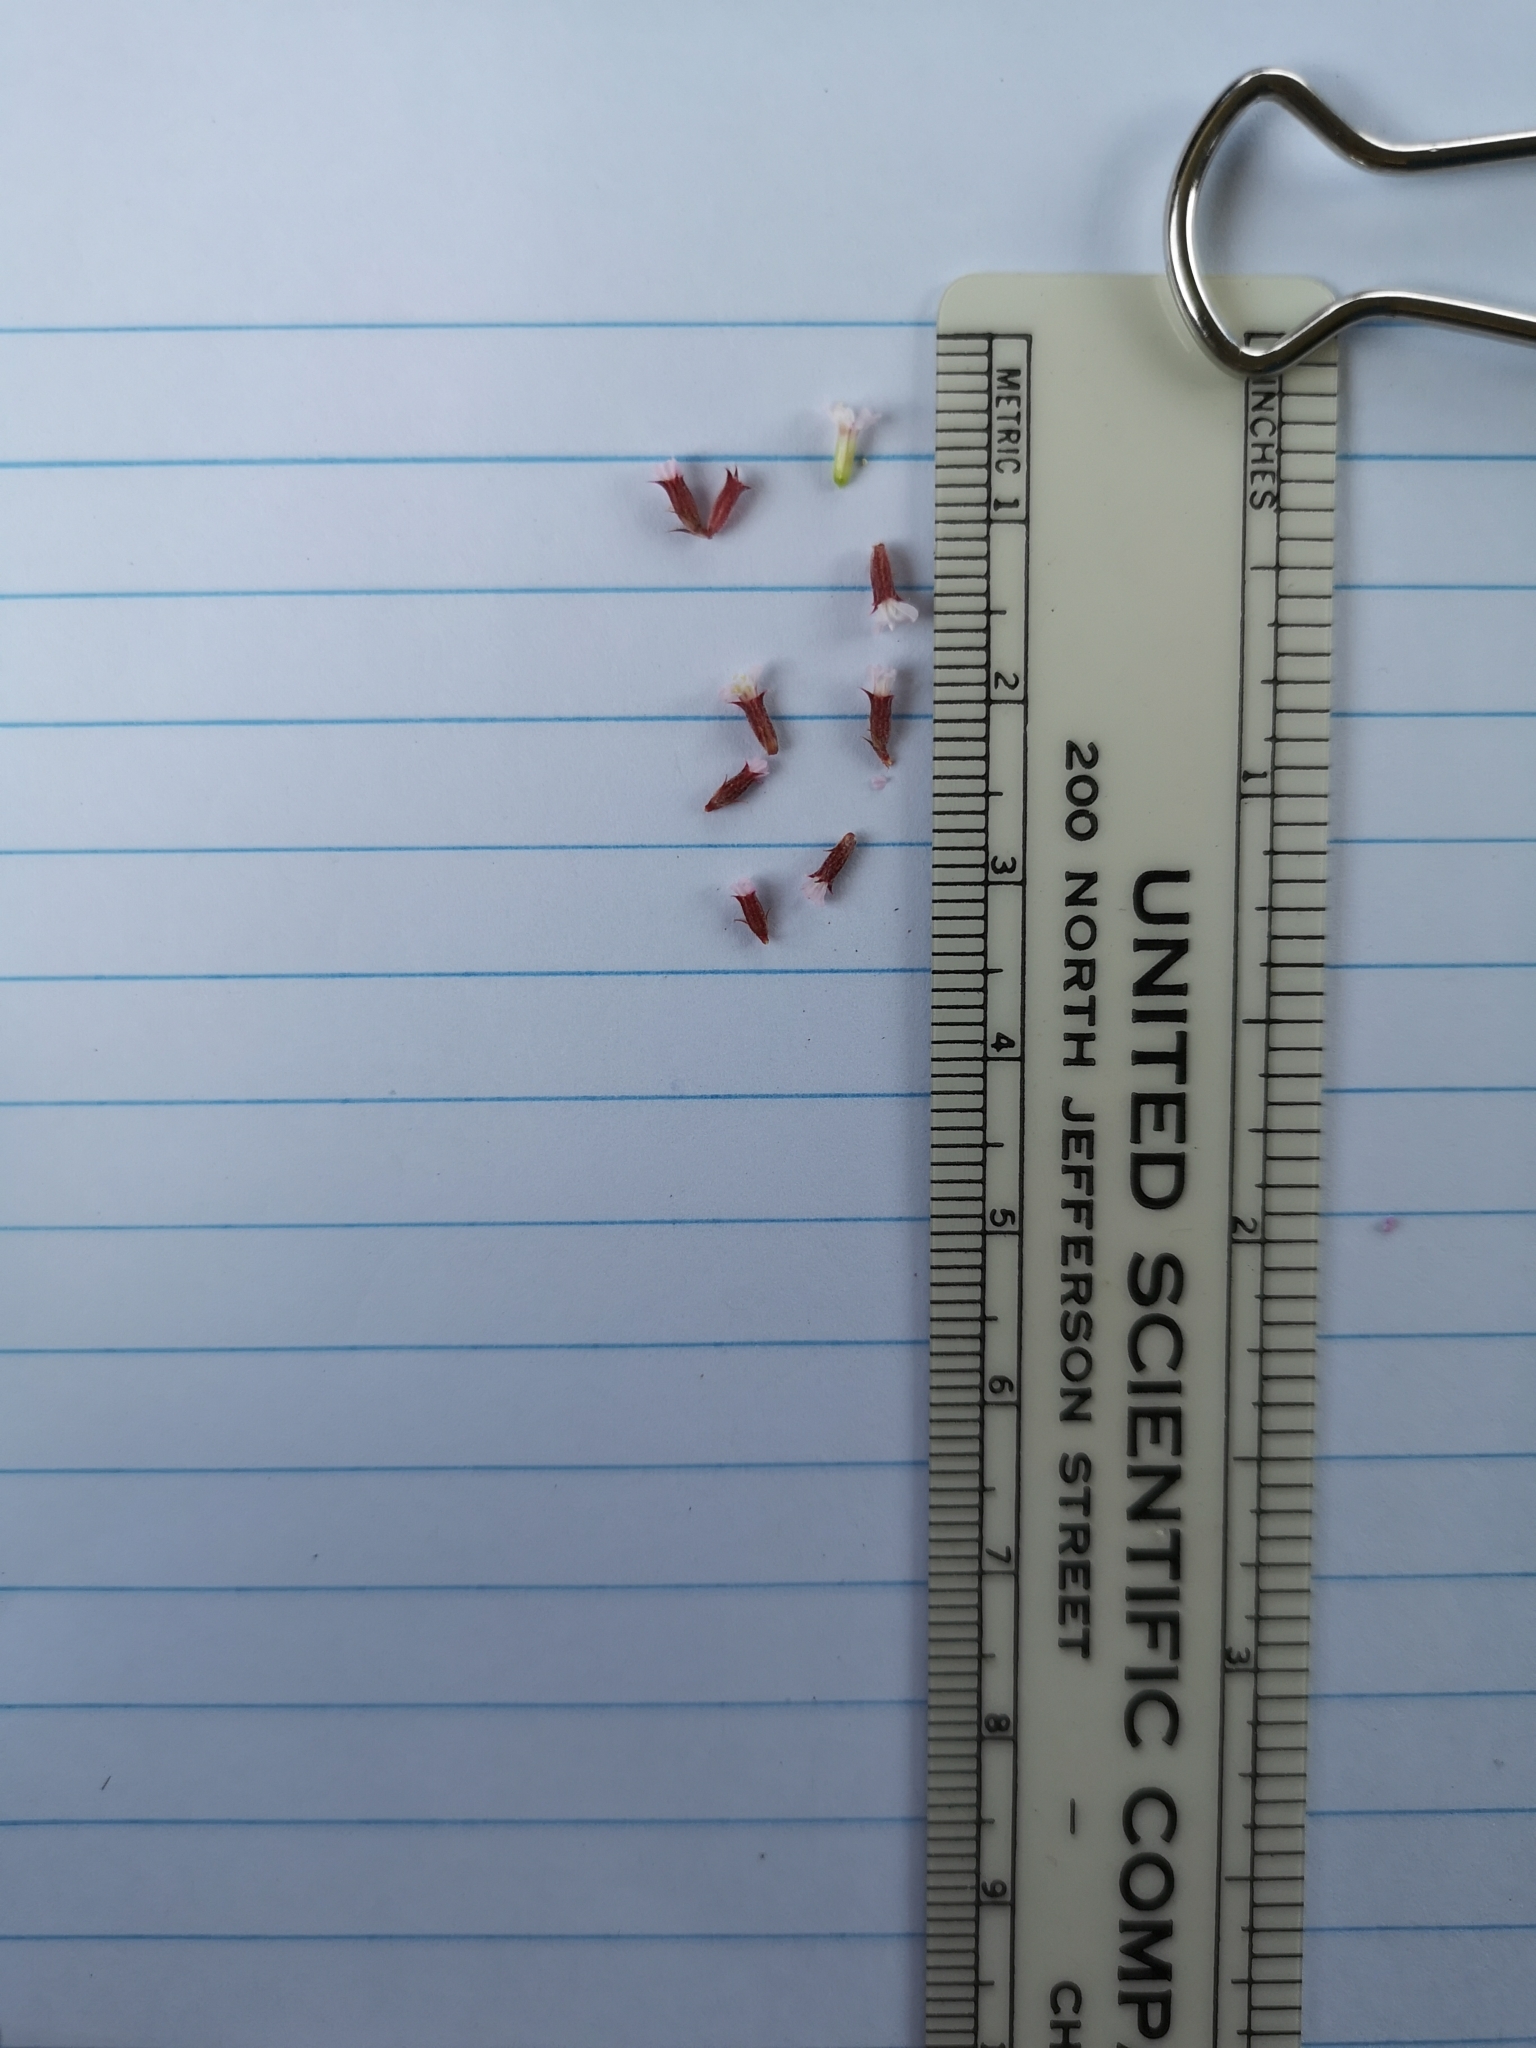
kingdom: Plantae
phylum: Tracheophyta
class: Magnoliopsida
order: Caryophyllales
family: Polygonaceae
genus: Chorizanthe
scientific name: Chorizanthe staticoides
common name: Turkish rugging
